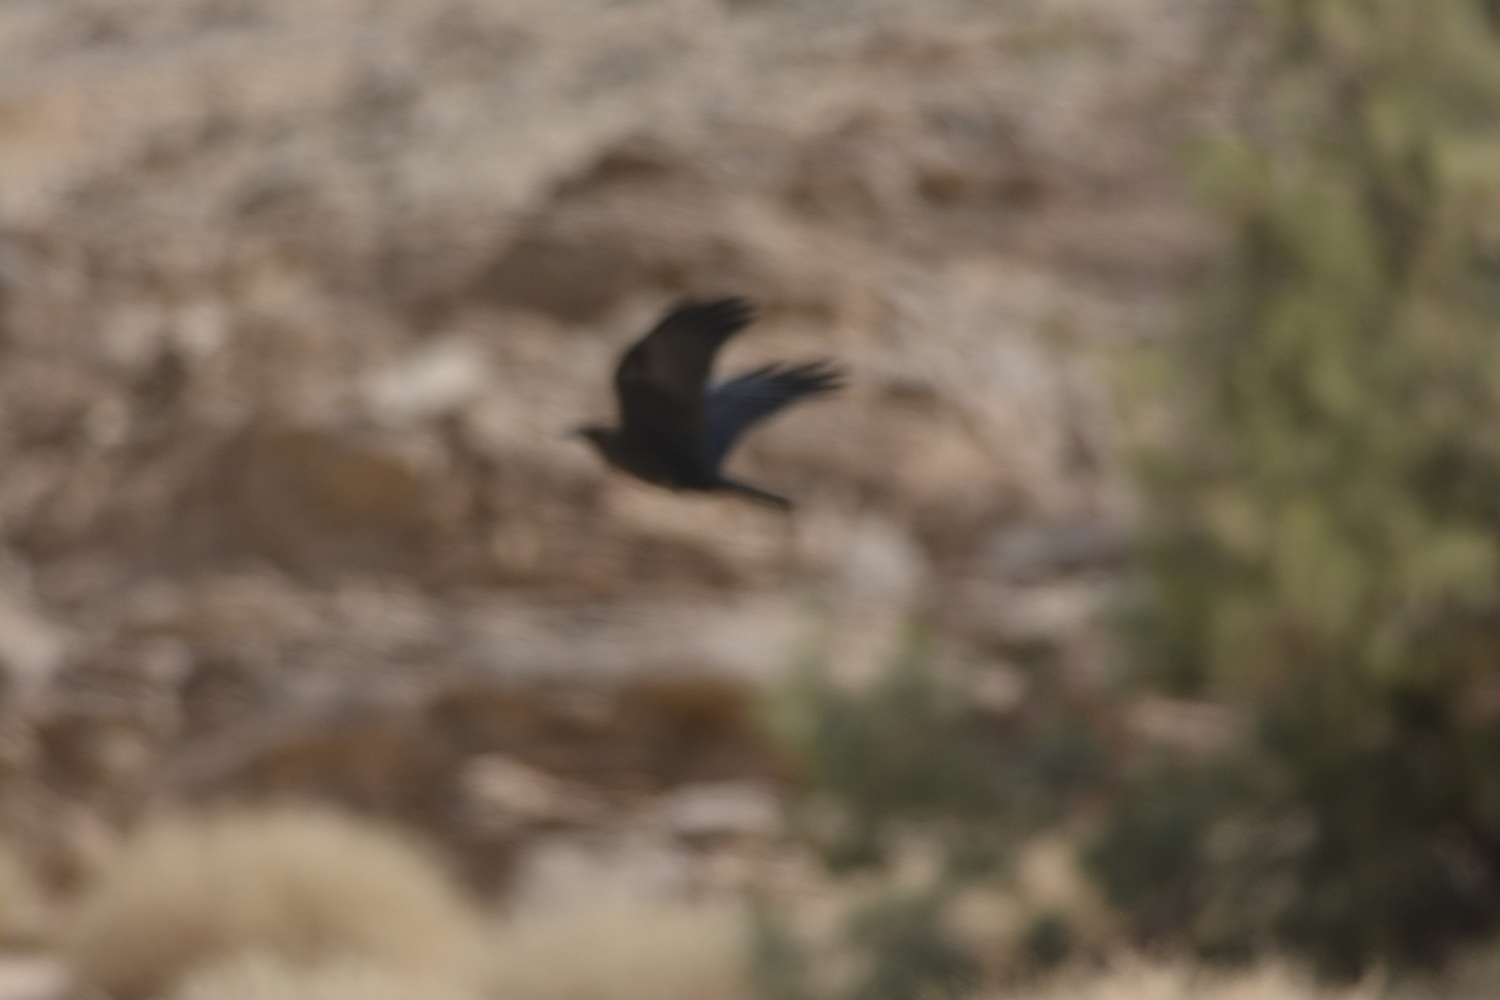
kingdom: Animalia
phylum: Chordata
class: Aves
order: Passeriformes
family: Corvidae
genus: Corvus
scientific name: Corvus ruficollis
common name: Brown-necked raven
